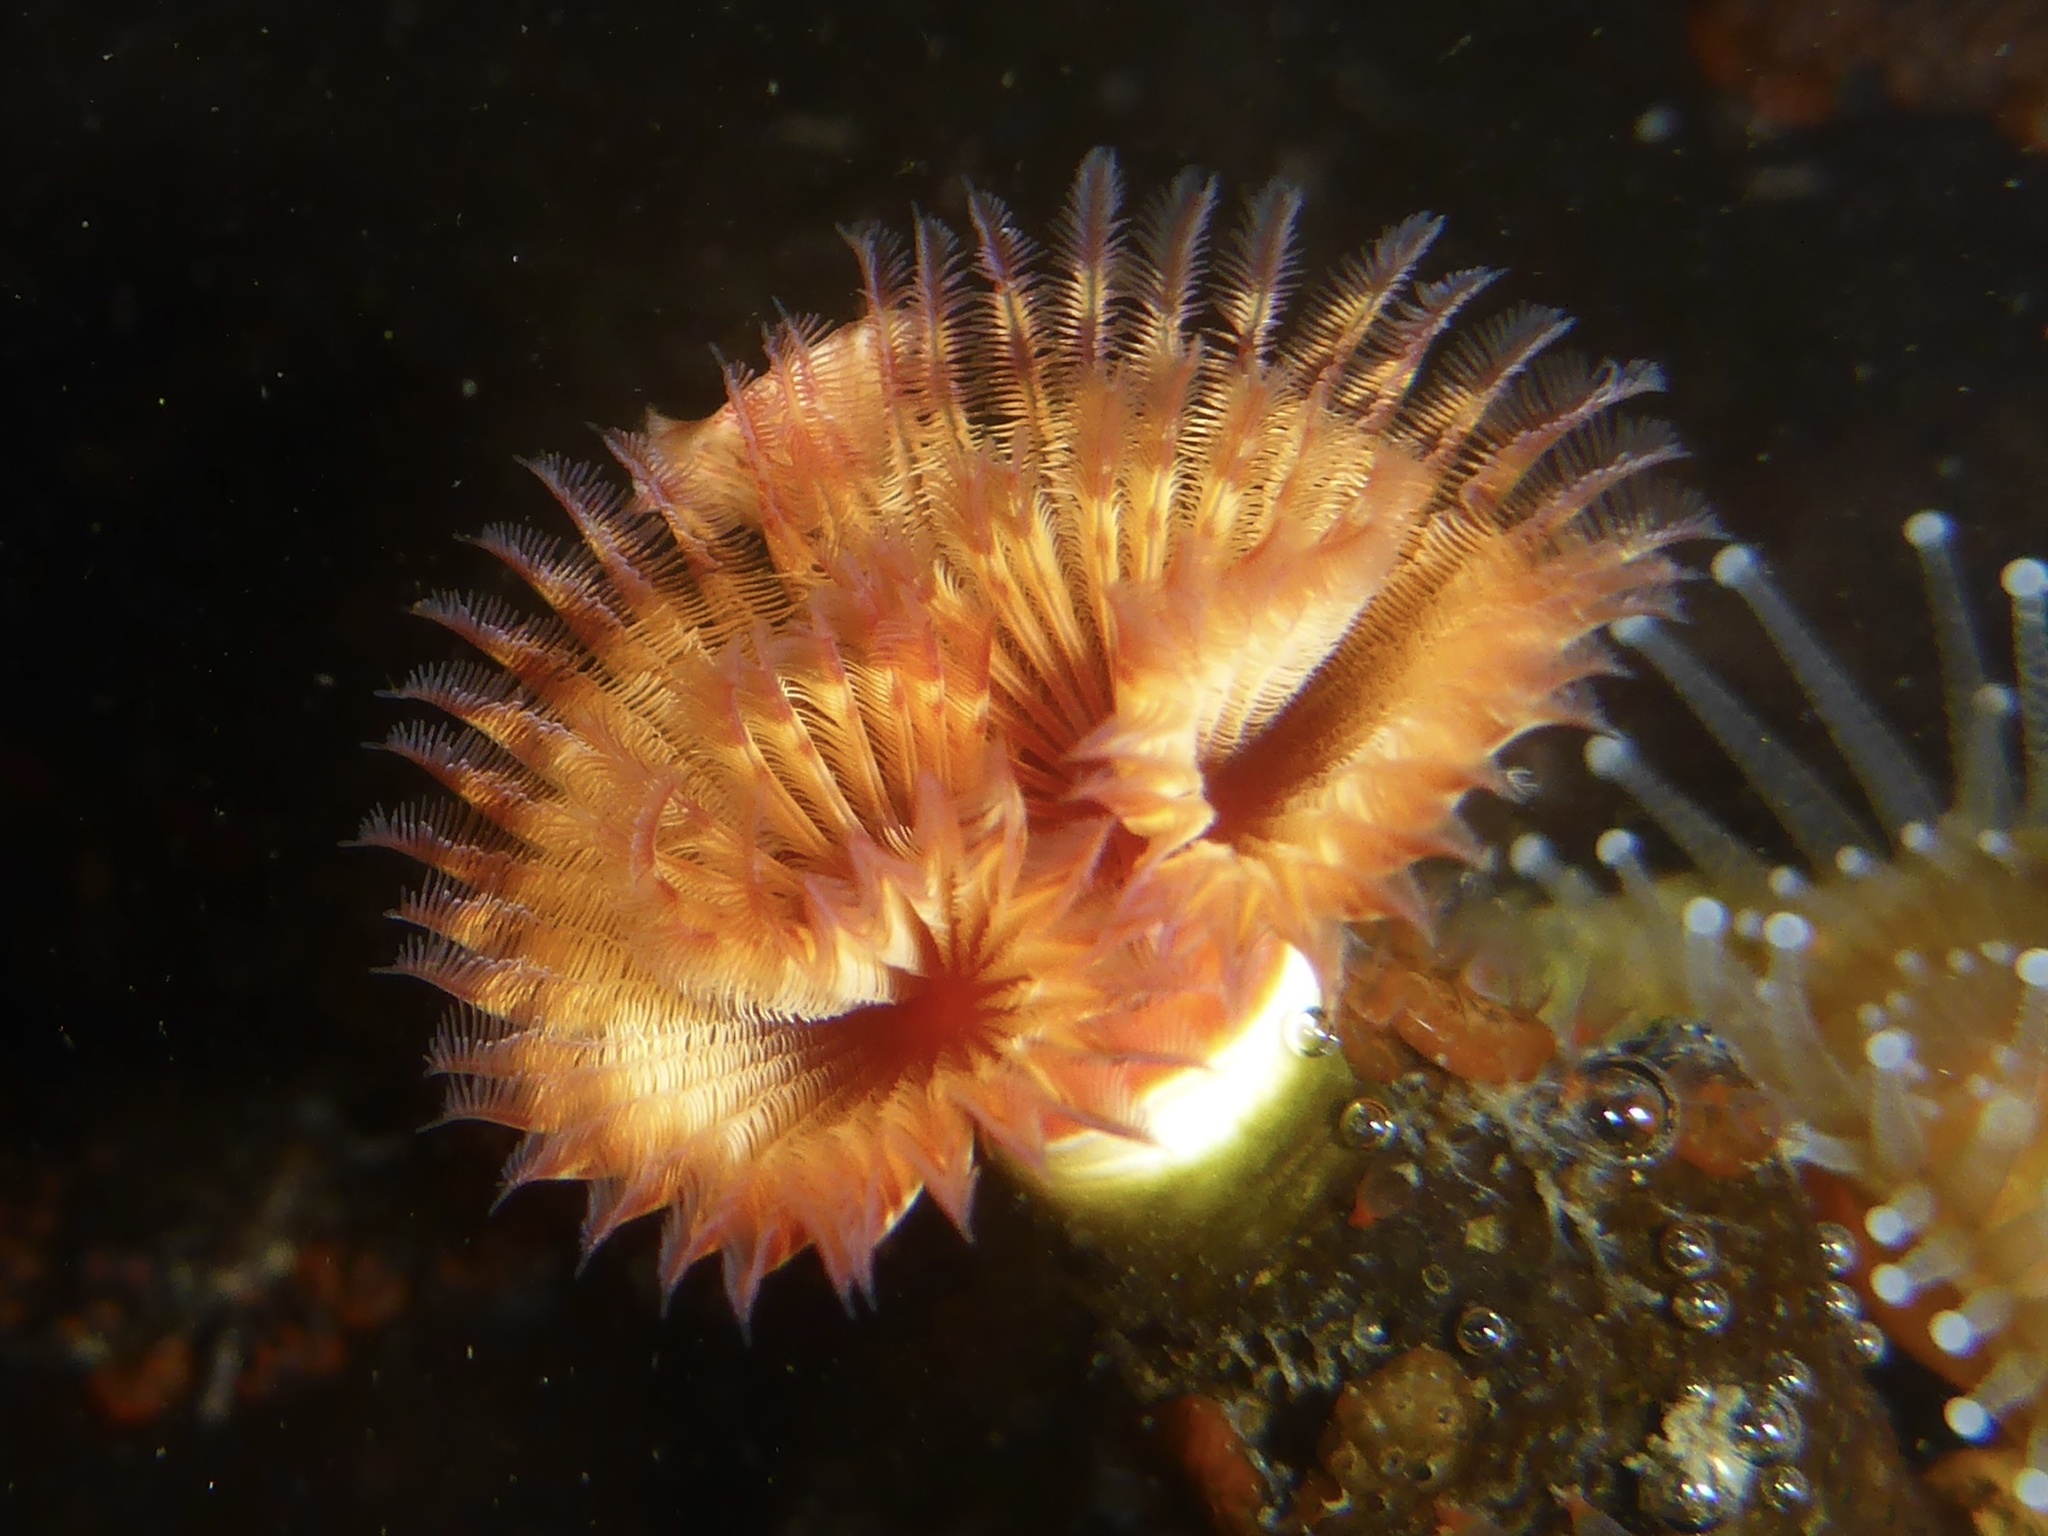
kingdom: Animalia
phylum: Annelida
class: Polychaeta
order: Sabellida
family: Serpulidae
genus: Serpula
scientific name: Serpula columbiana
